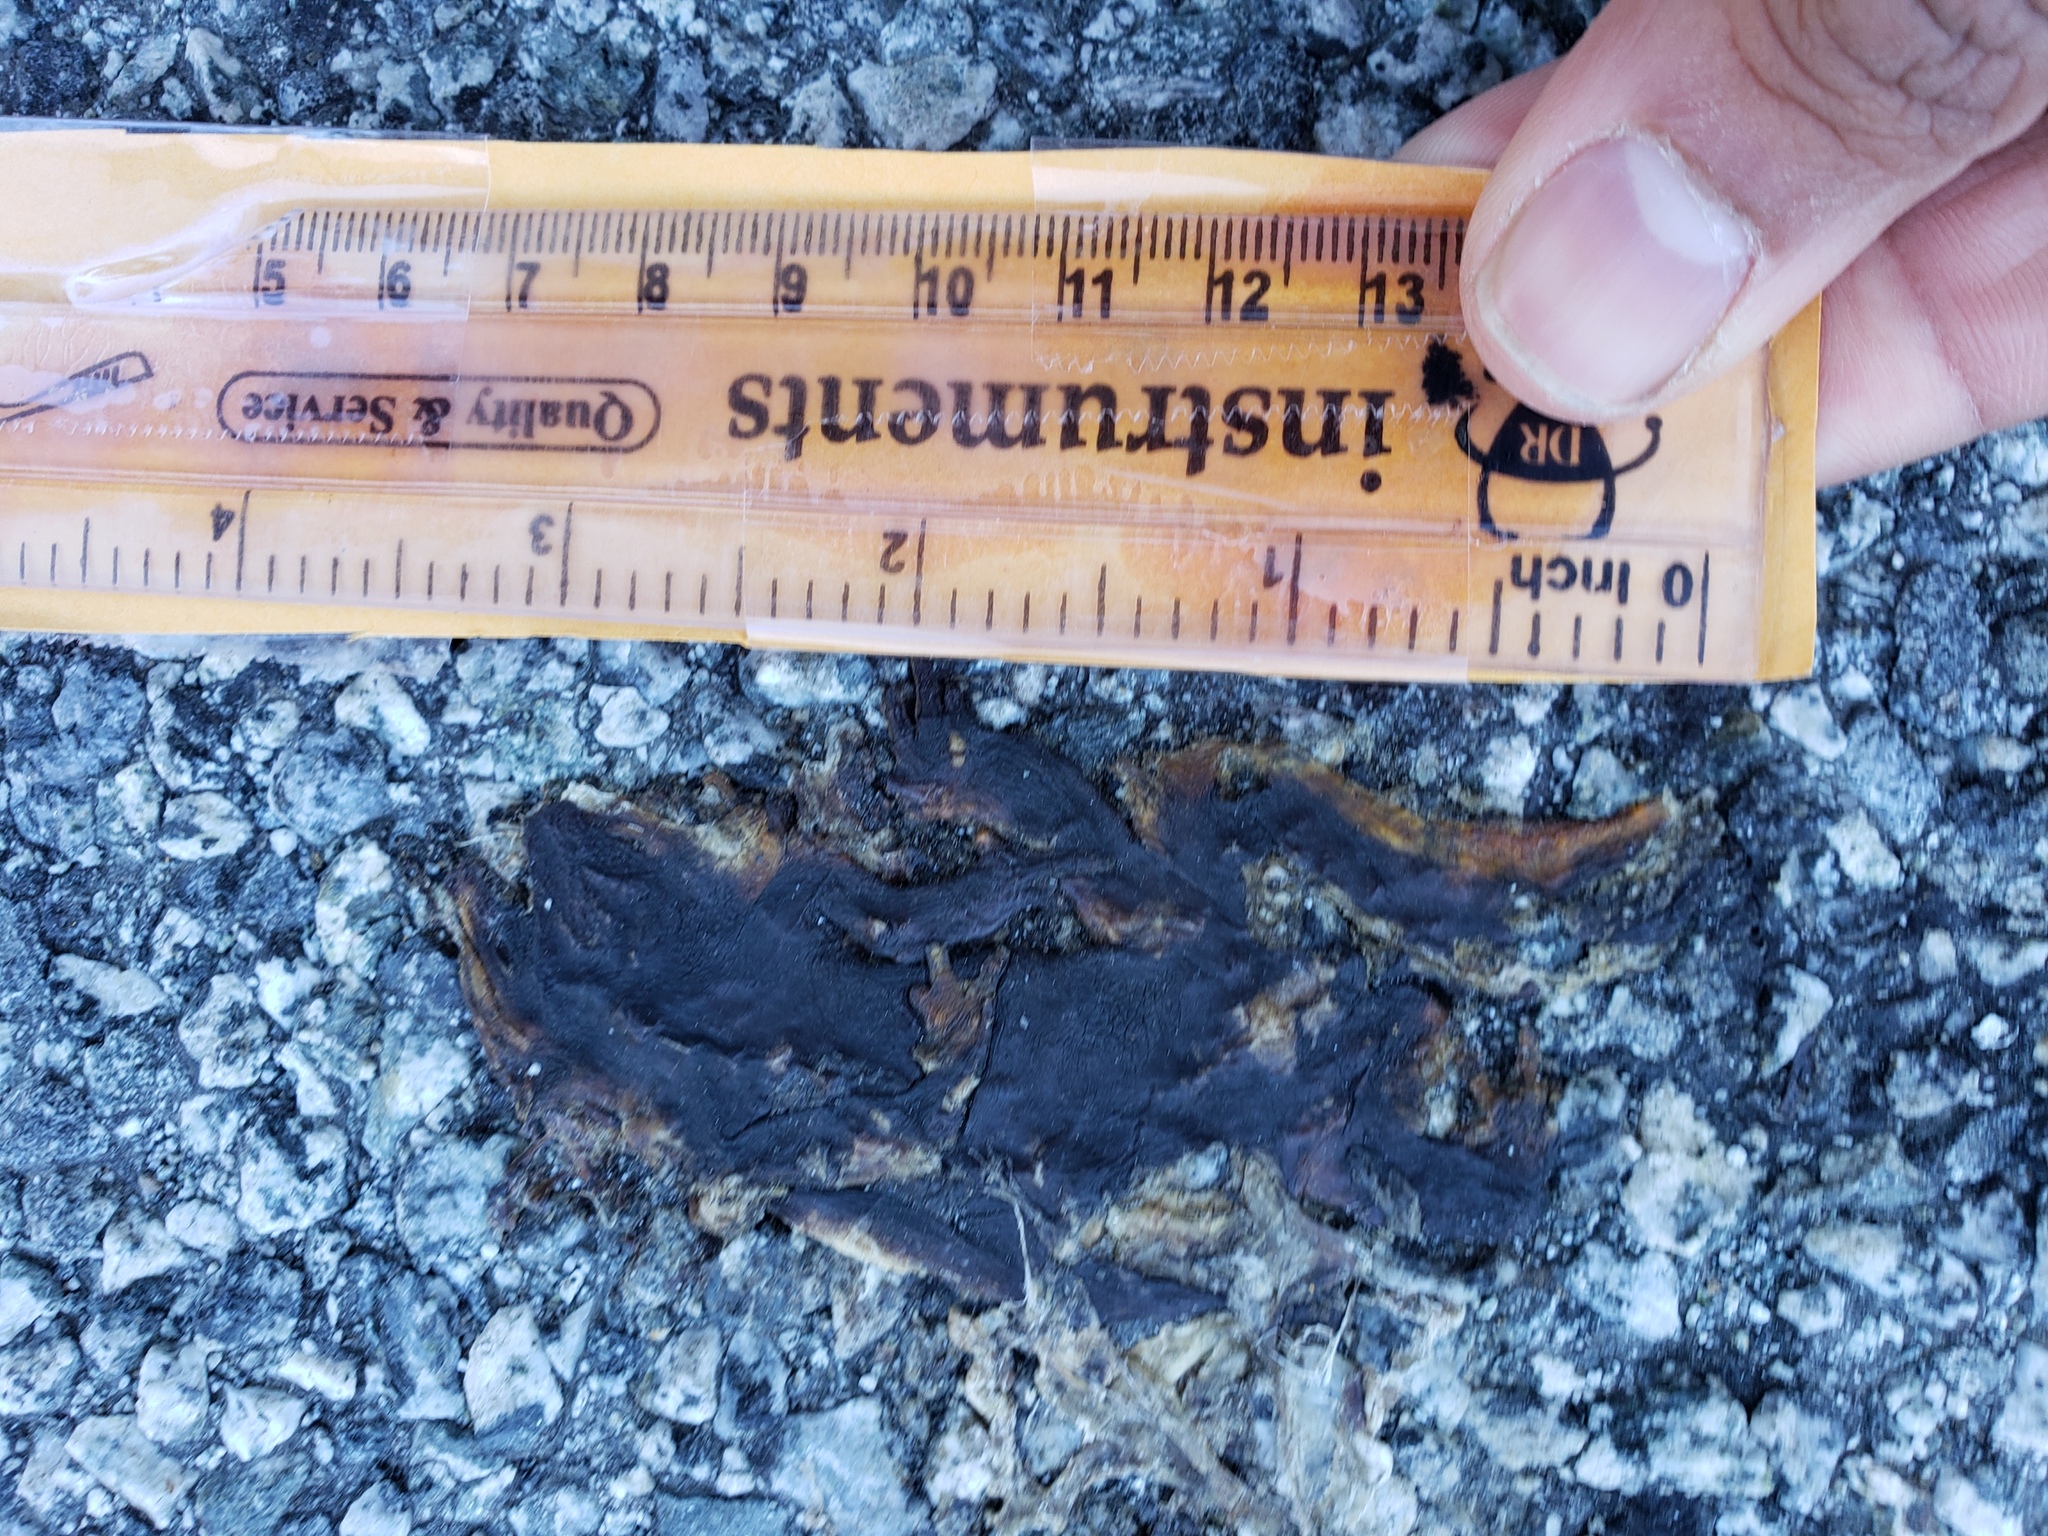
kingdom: Animalia
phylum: Chordata
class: Amphibia
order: Caudata
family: Salamandridae
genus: Taricha
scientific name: Taricha
